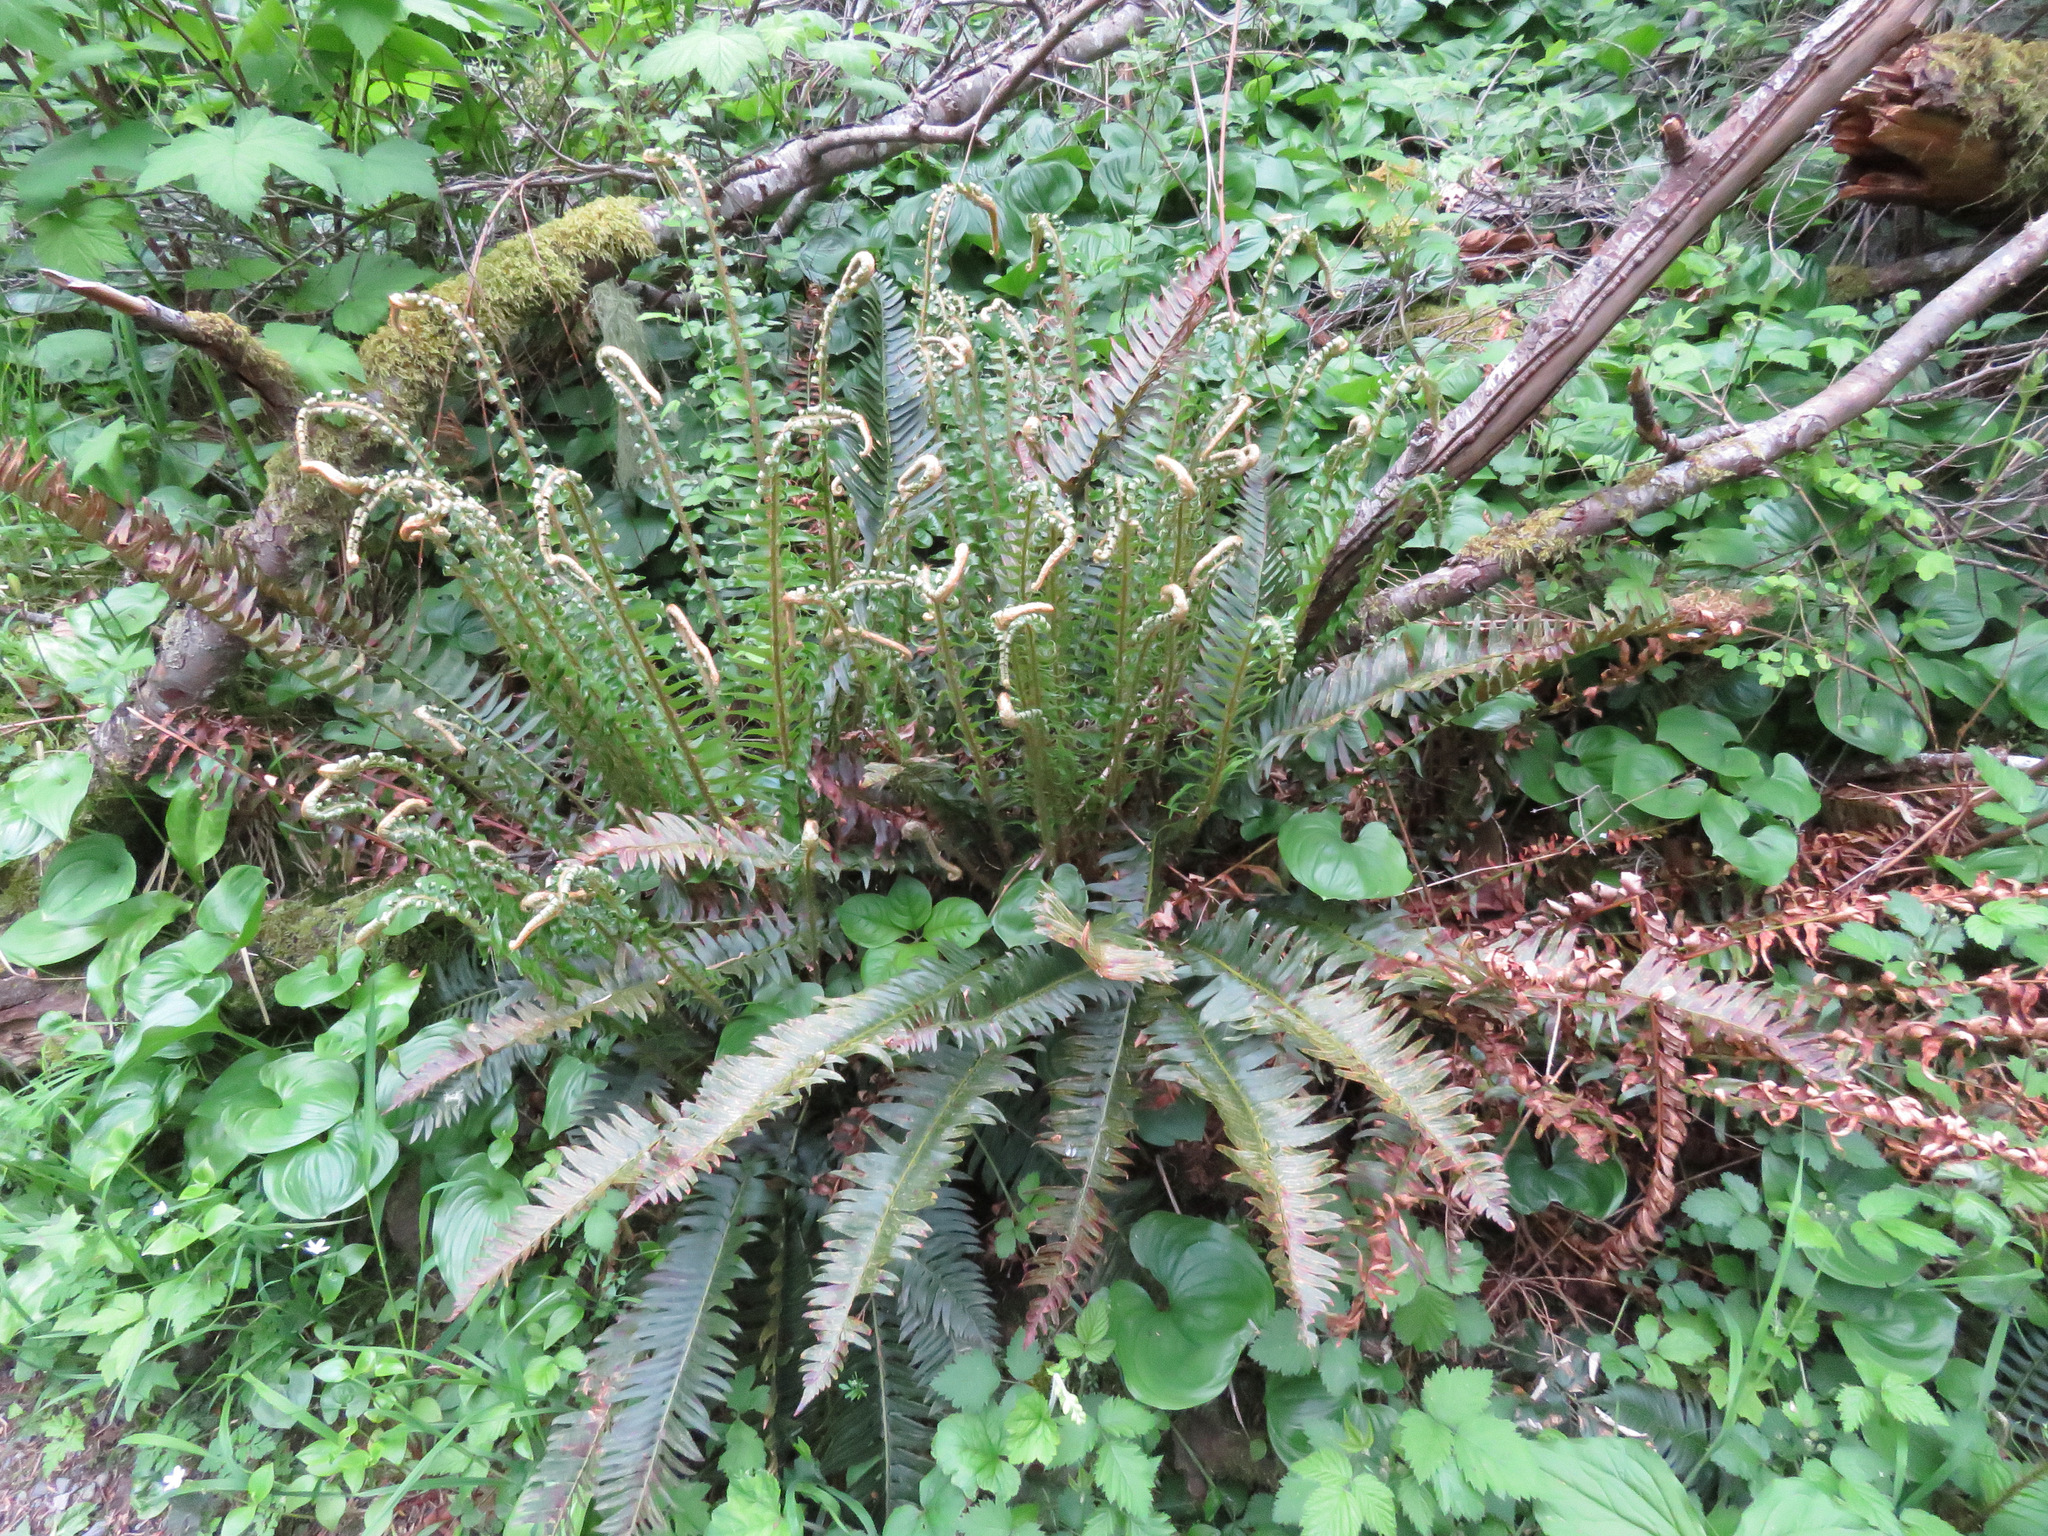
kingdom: Plantae
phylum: Tracheophyta
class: Polypodiopsida
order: Polypodiales
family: Dryopteridaceae
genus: Polystichum
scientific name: Polystichum munitum
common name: Western sword-fern
